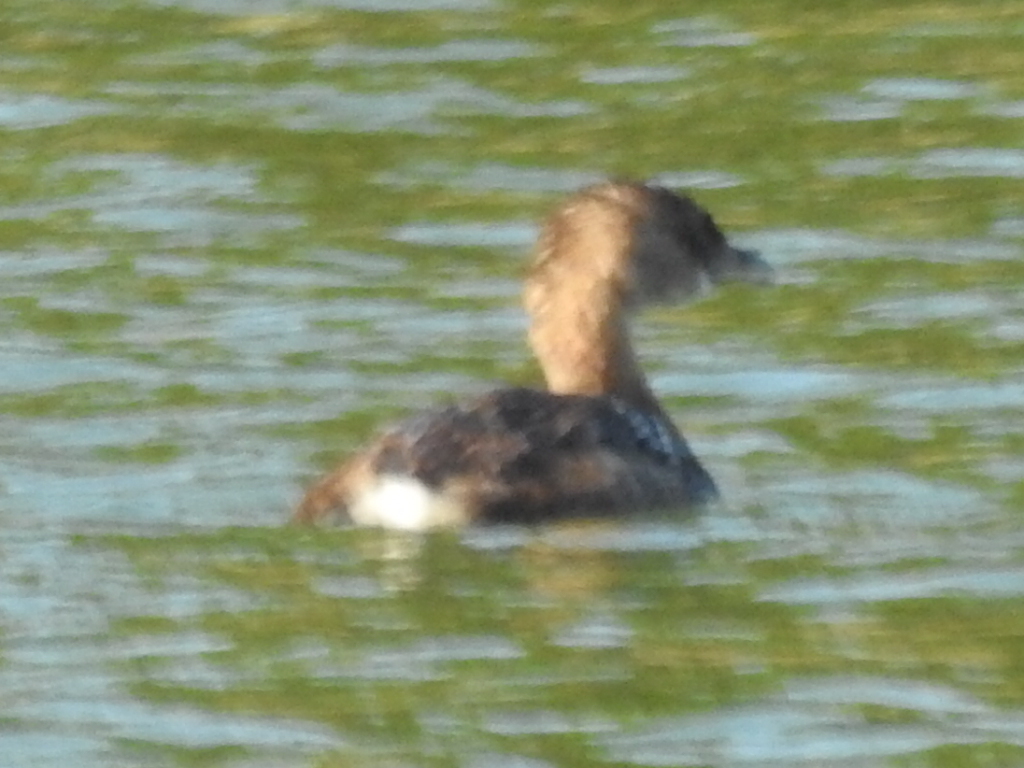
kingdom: Animalia
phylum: Chordata
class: Aves
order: Podicipediformes
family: Podicipedidae
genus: Podilymbus
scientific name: Podilymbus podiceps
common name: Pied-billed grebe
